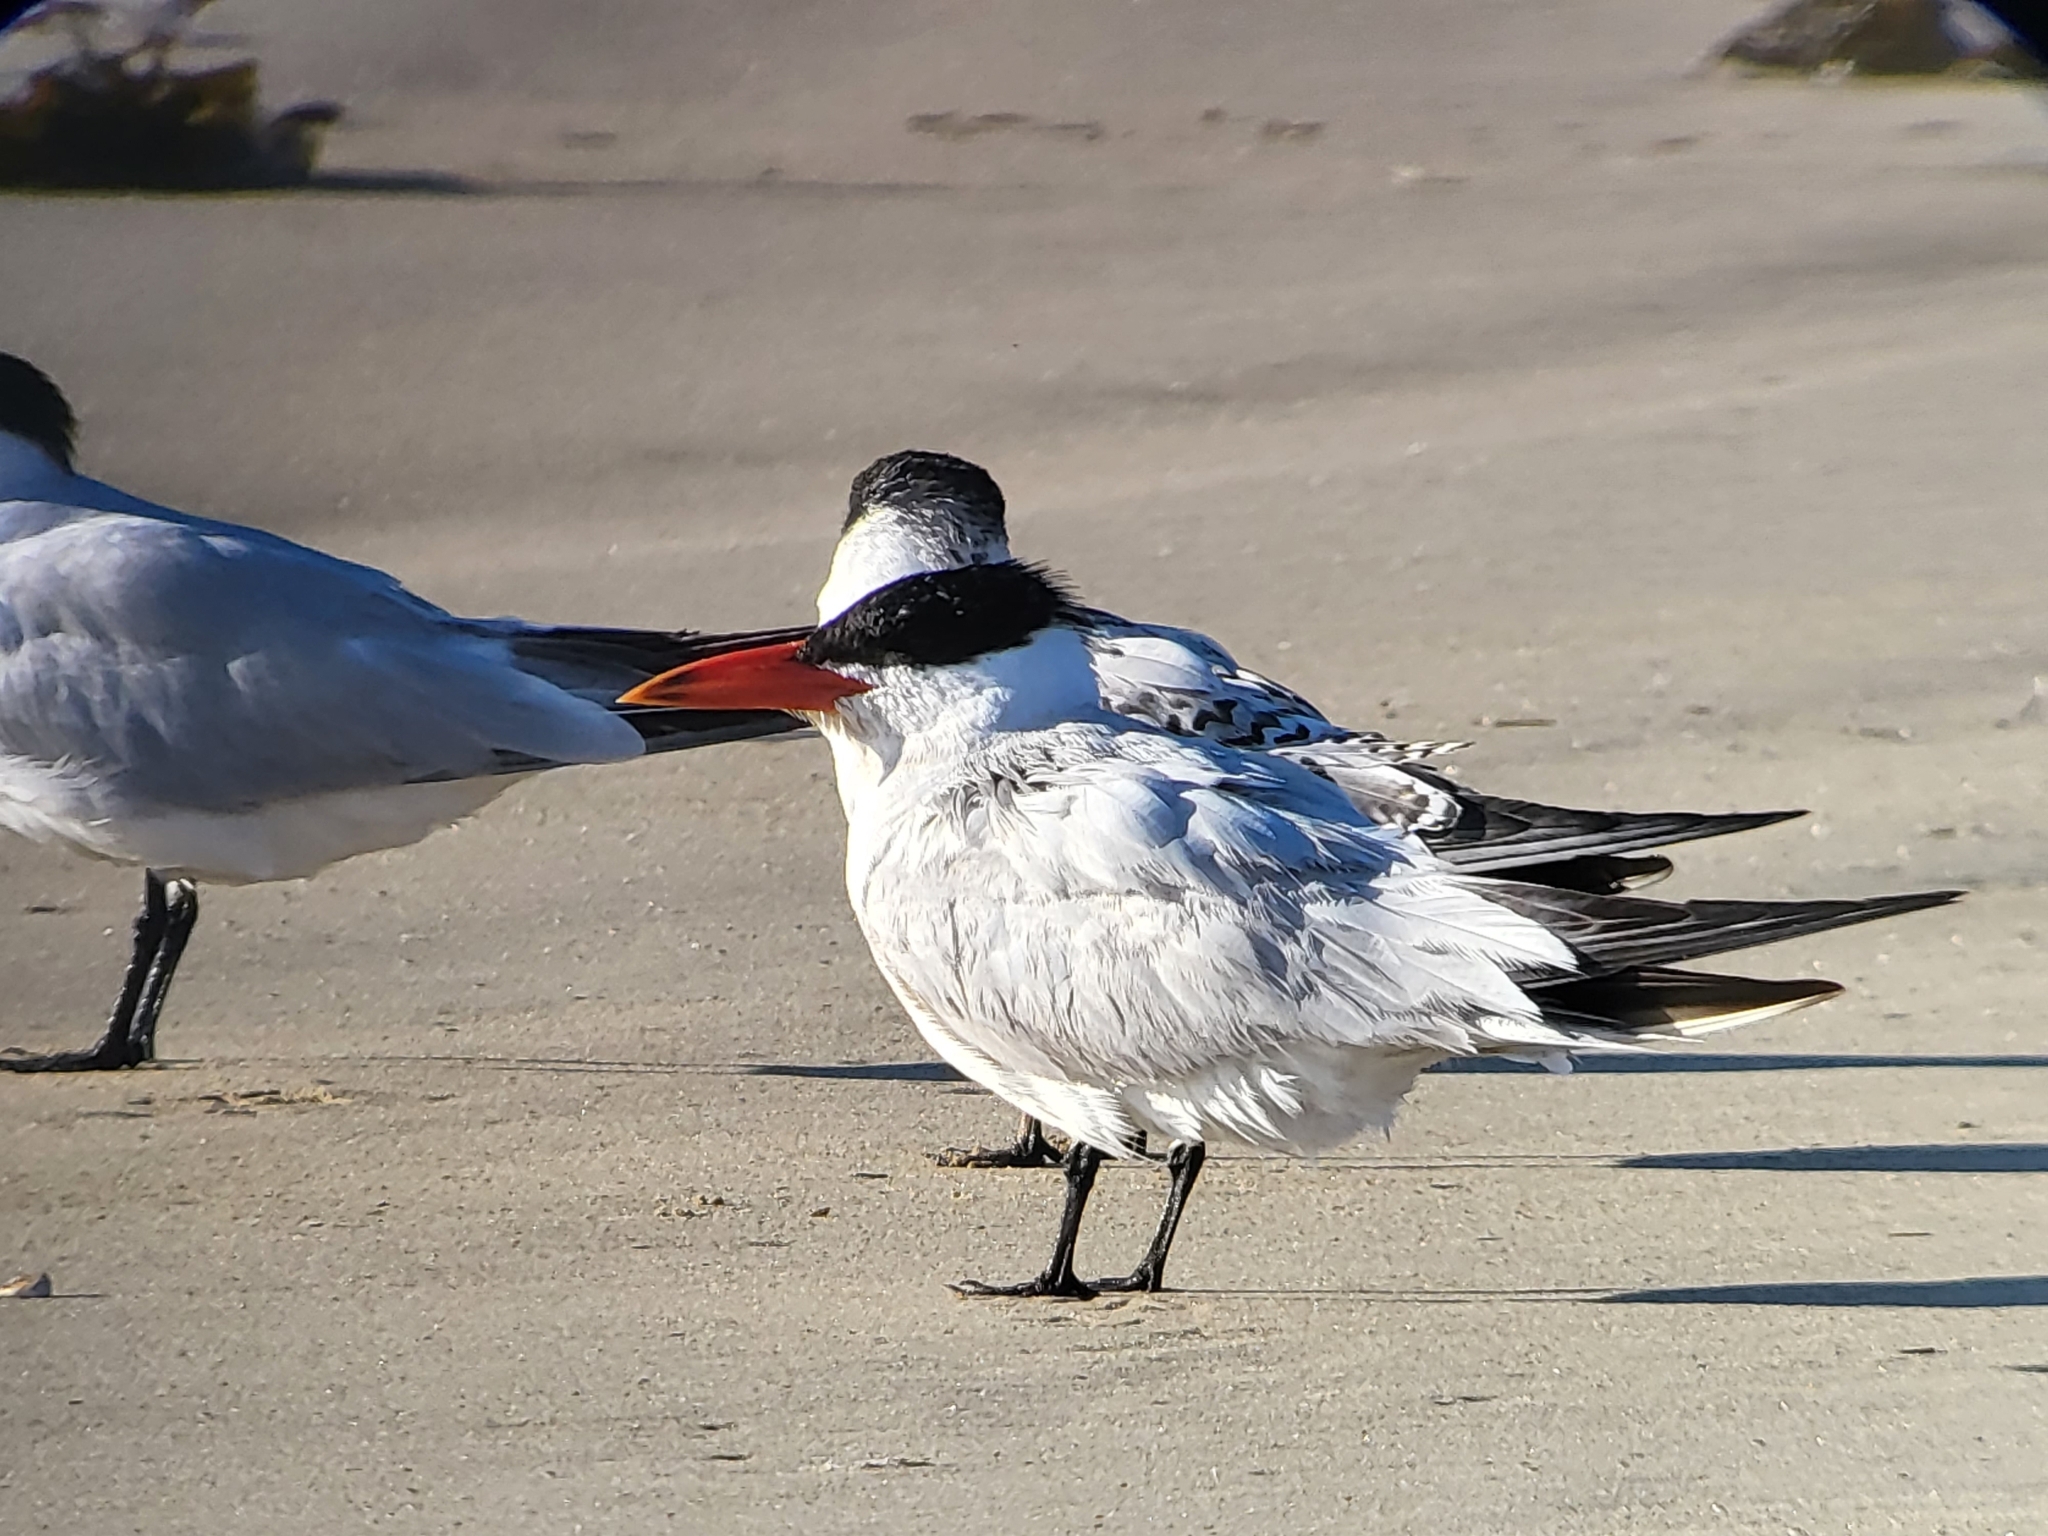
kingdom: Animalia
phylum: Chordata
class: Aves
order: Charadriiformes
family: Laridae
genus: Hydroprogne
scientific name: Hydroprogne caspia
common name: Caspian tern
